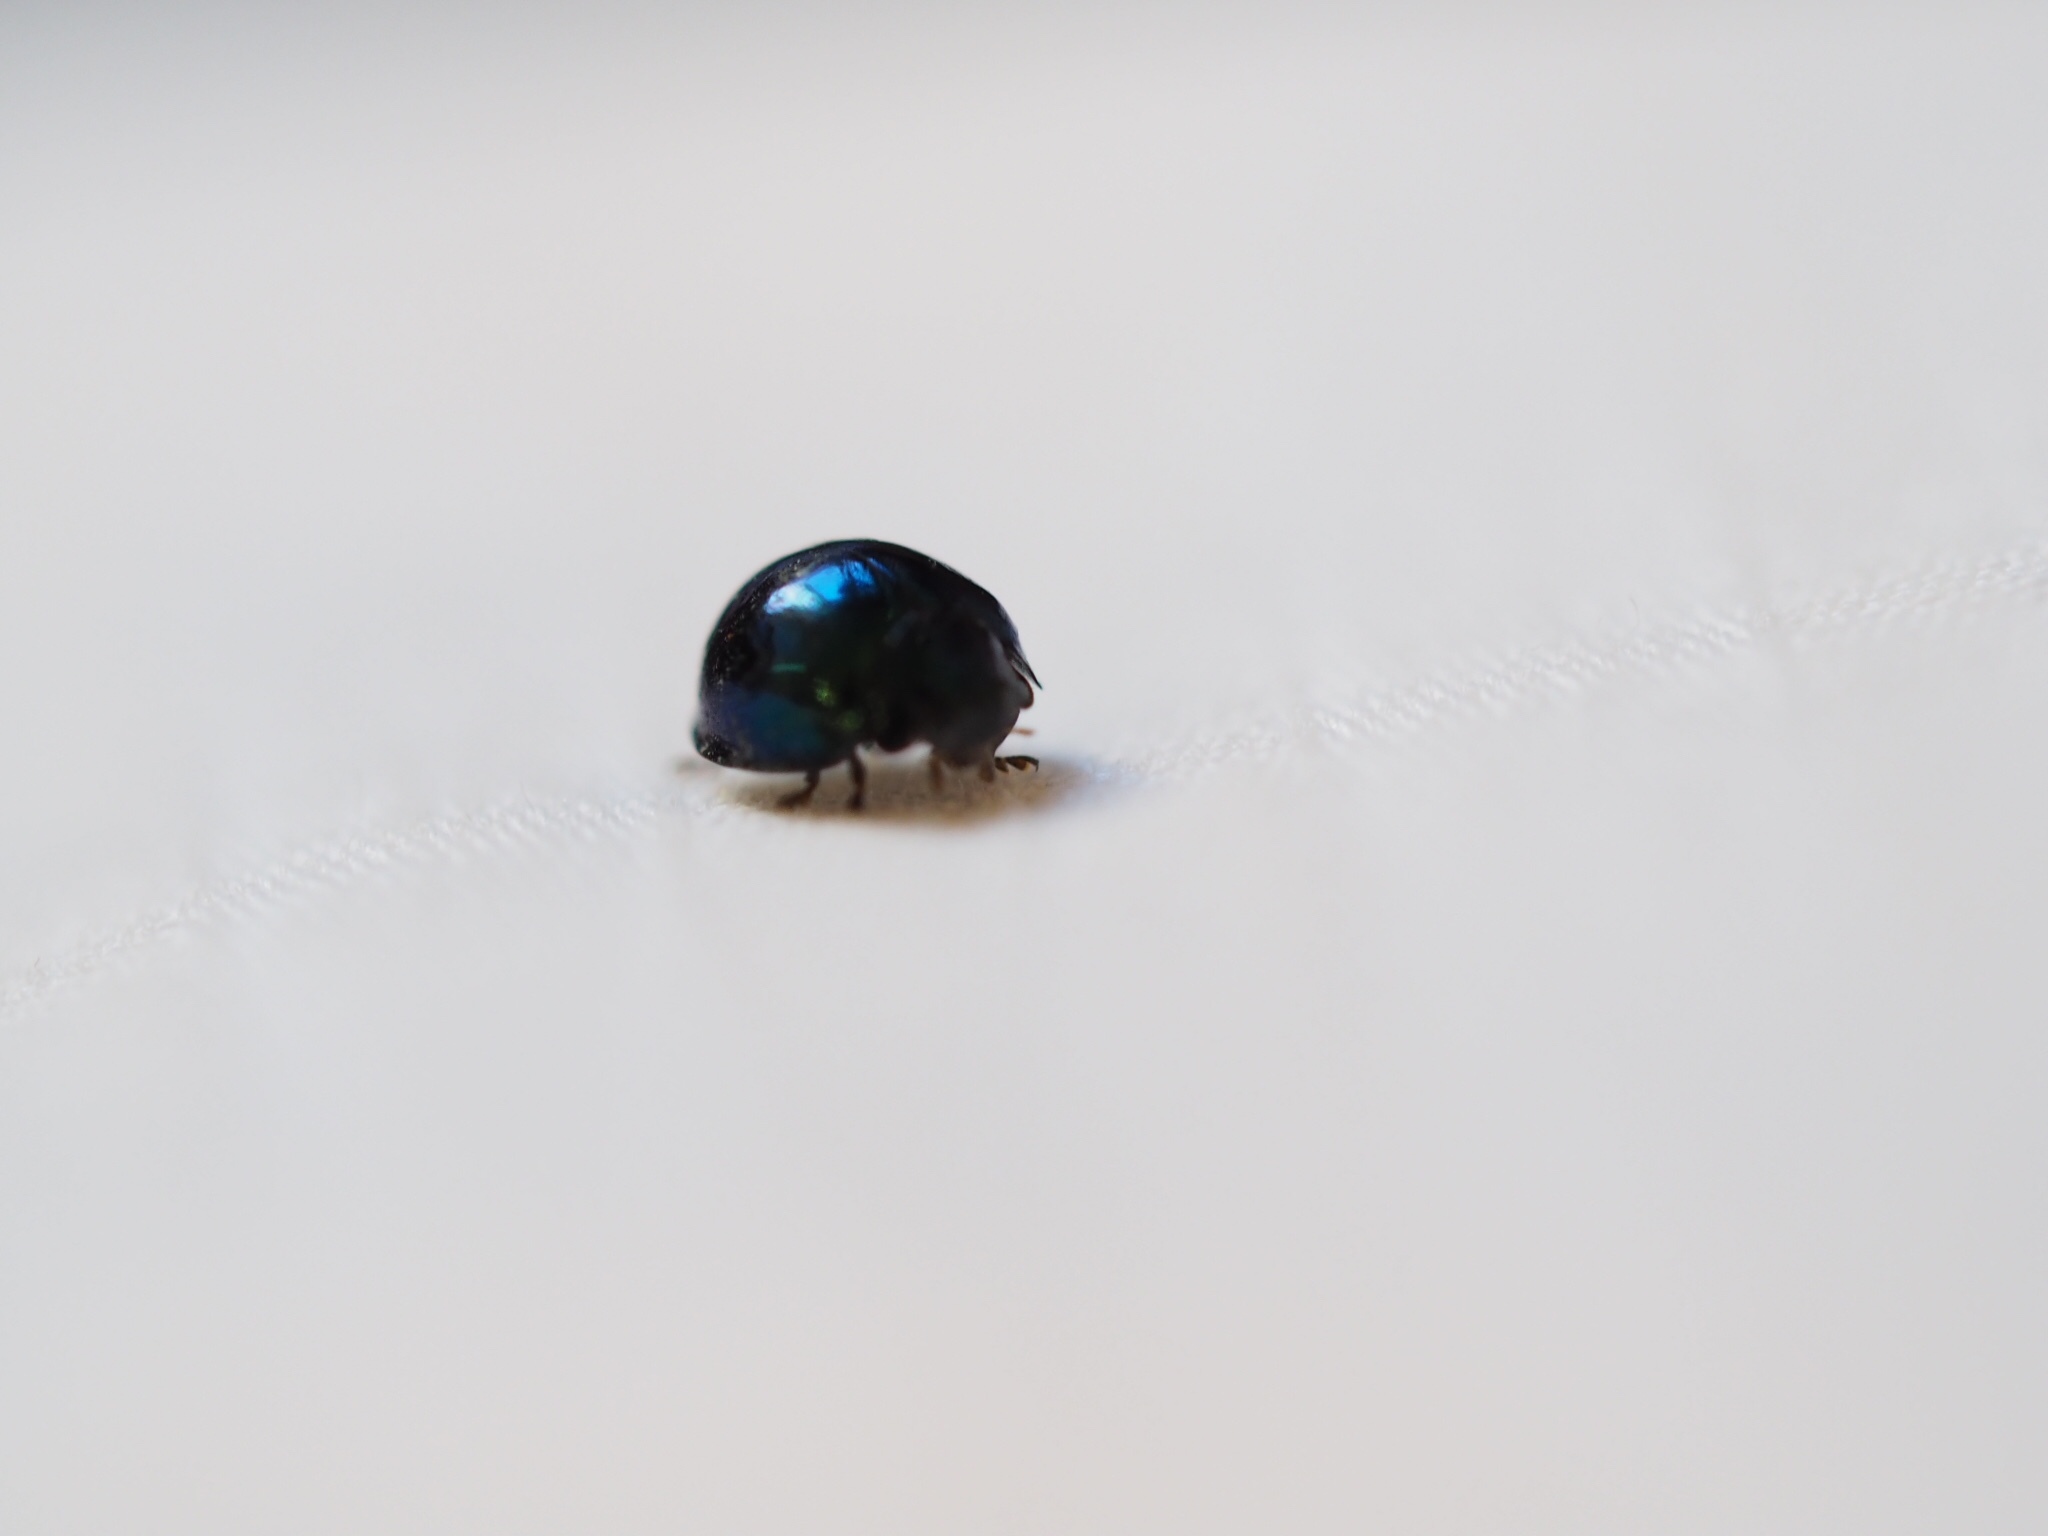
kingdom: Animalia
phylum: Arthropoda
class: Insecta
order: Coleoptera
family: Coccinellidae
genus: Halmus
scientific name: Halmus chalybeus
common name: Steel blue ladybird beetle
